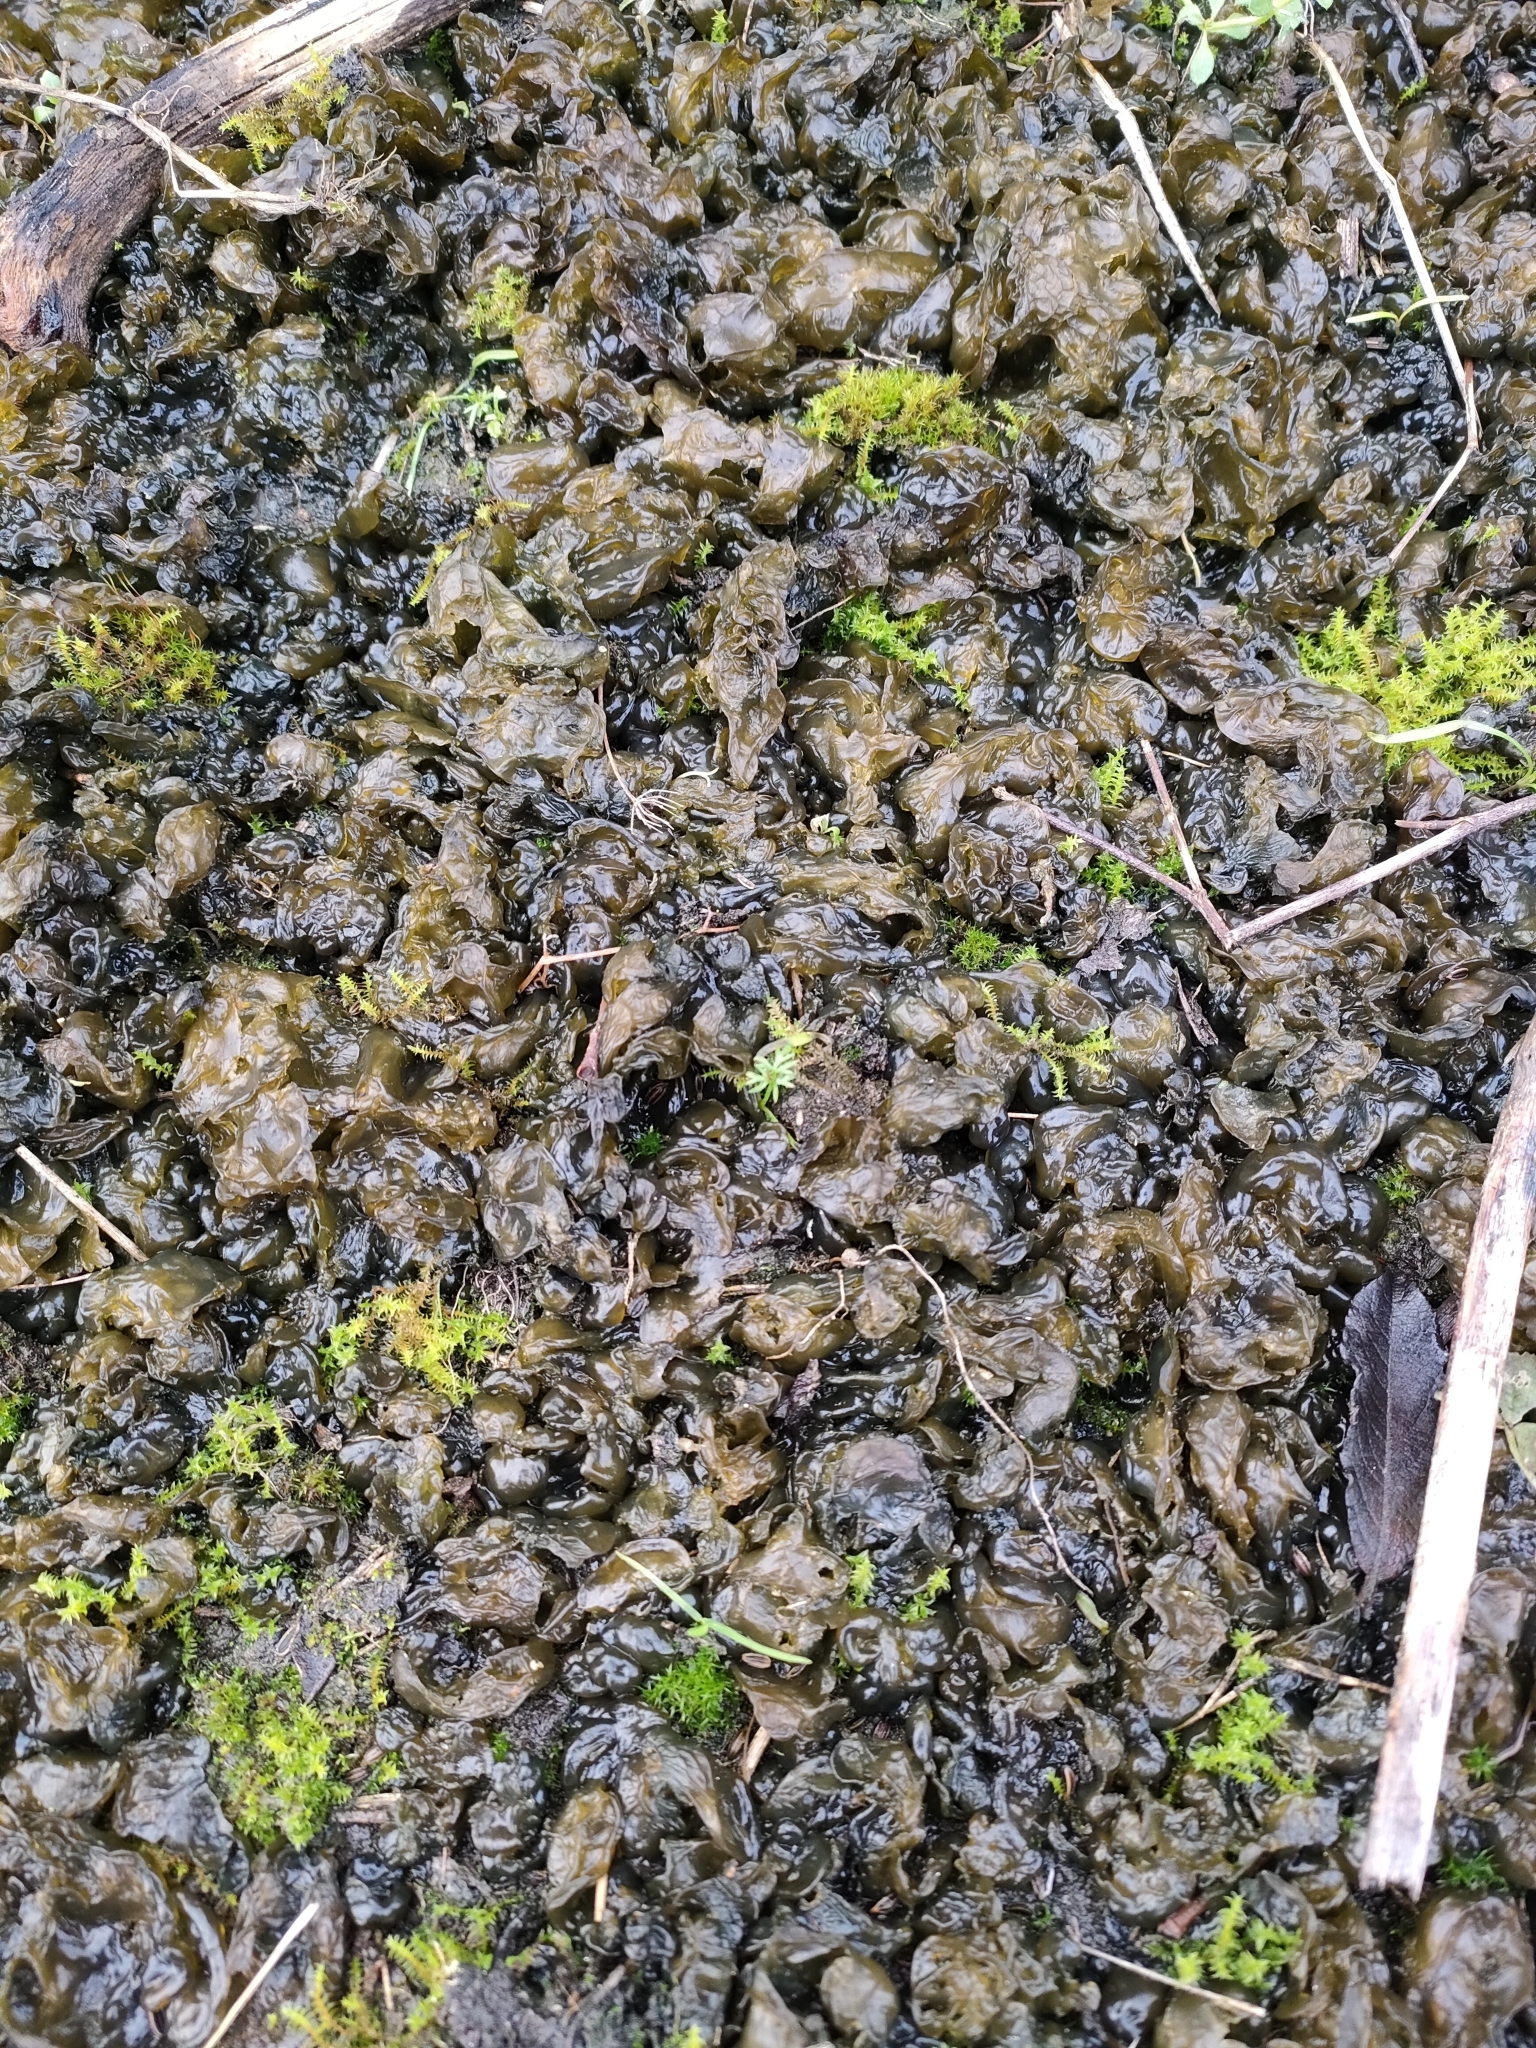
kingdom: Bacteria
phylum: Cyanobacteria
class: Cyanobacteriia
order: Cyanobacteriales
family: Nostocaceae
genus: Nostoc
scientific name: Nostoc commune
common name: Star jelly
